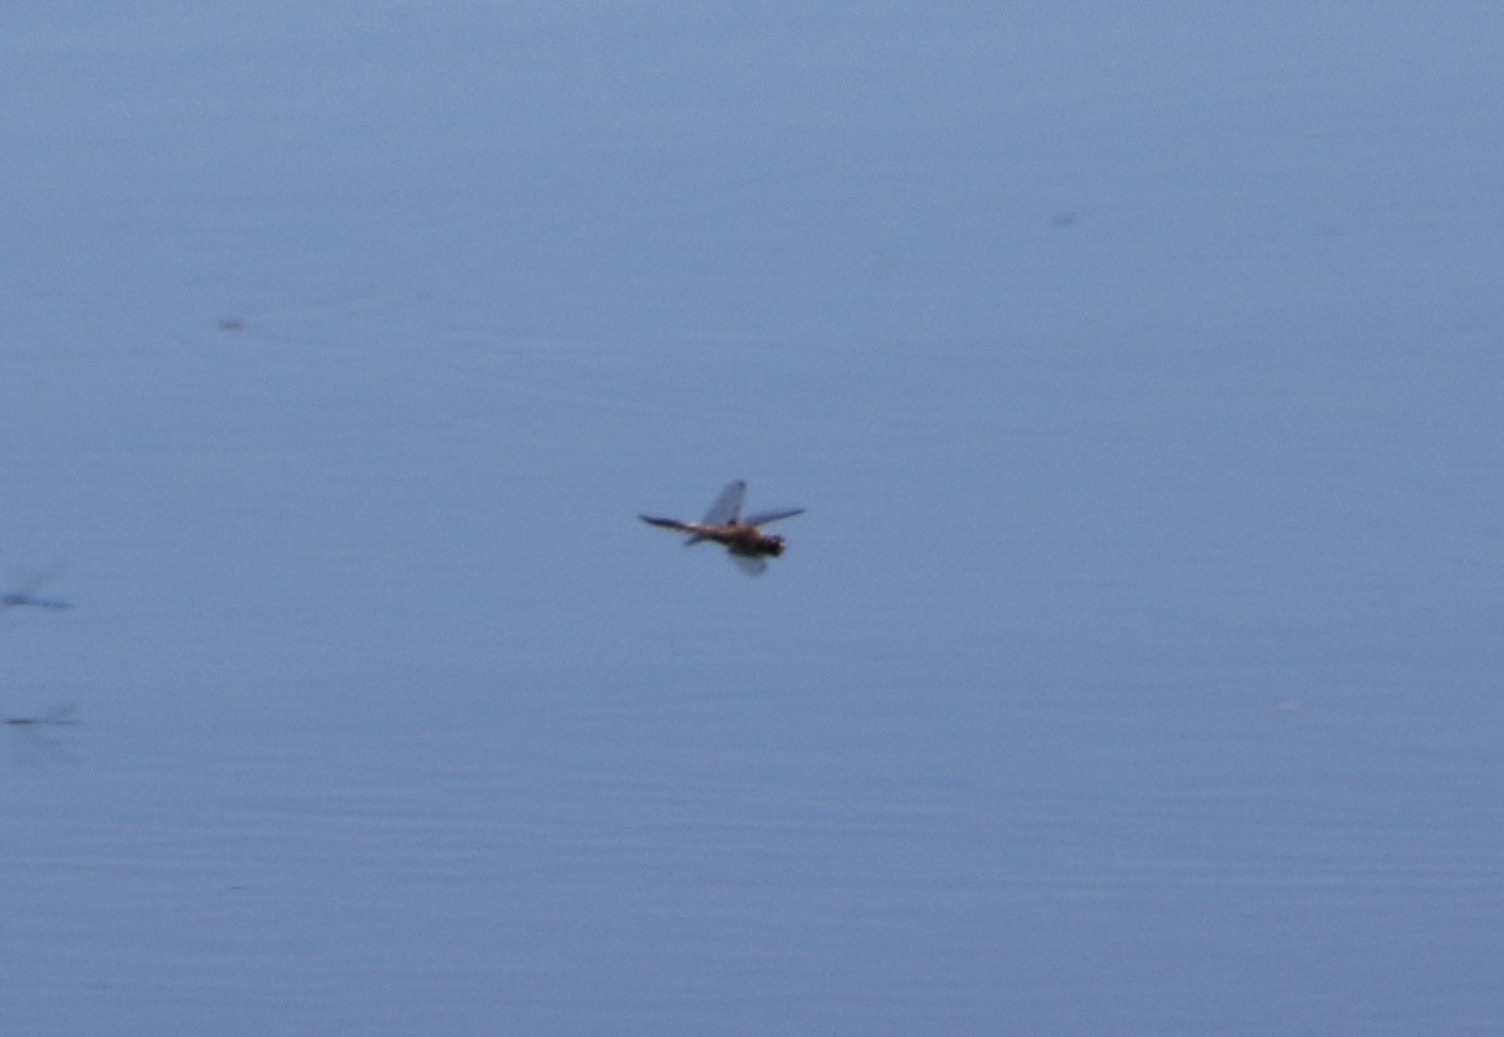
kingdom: Animalia
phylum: Arthropoda
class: Insecta
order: Odonata
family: Libellulidae
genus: Libellula
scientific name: Libellula quadrimaculata
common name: Four-spotted chaser
